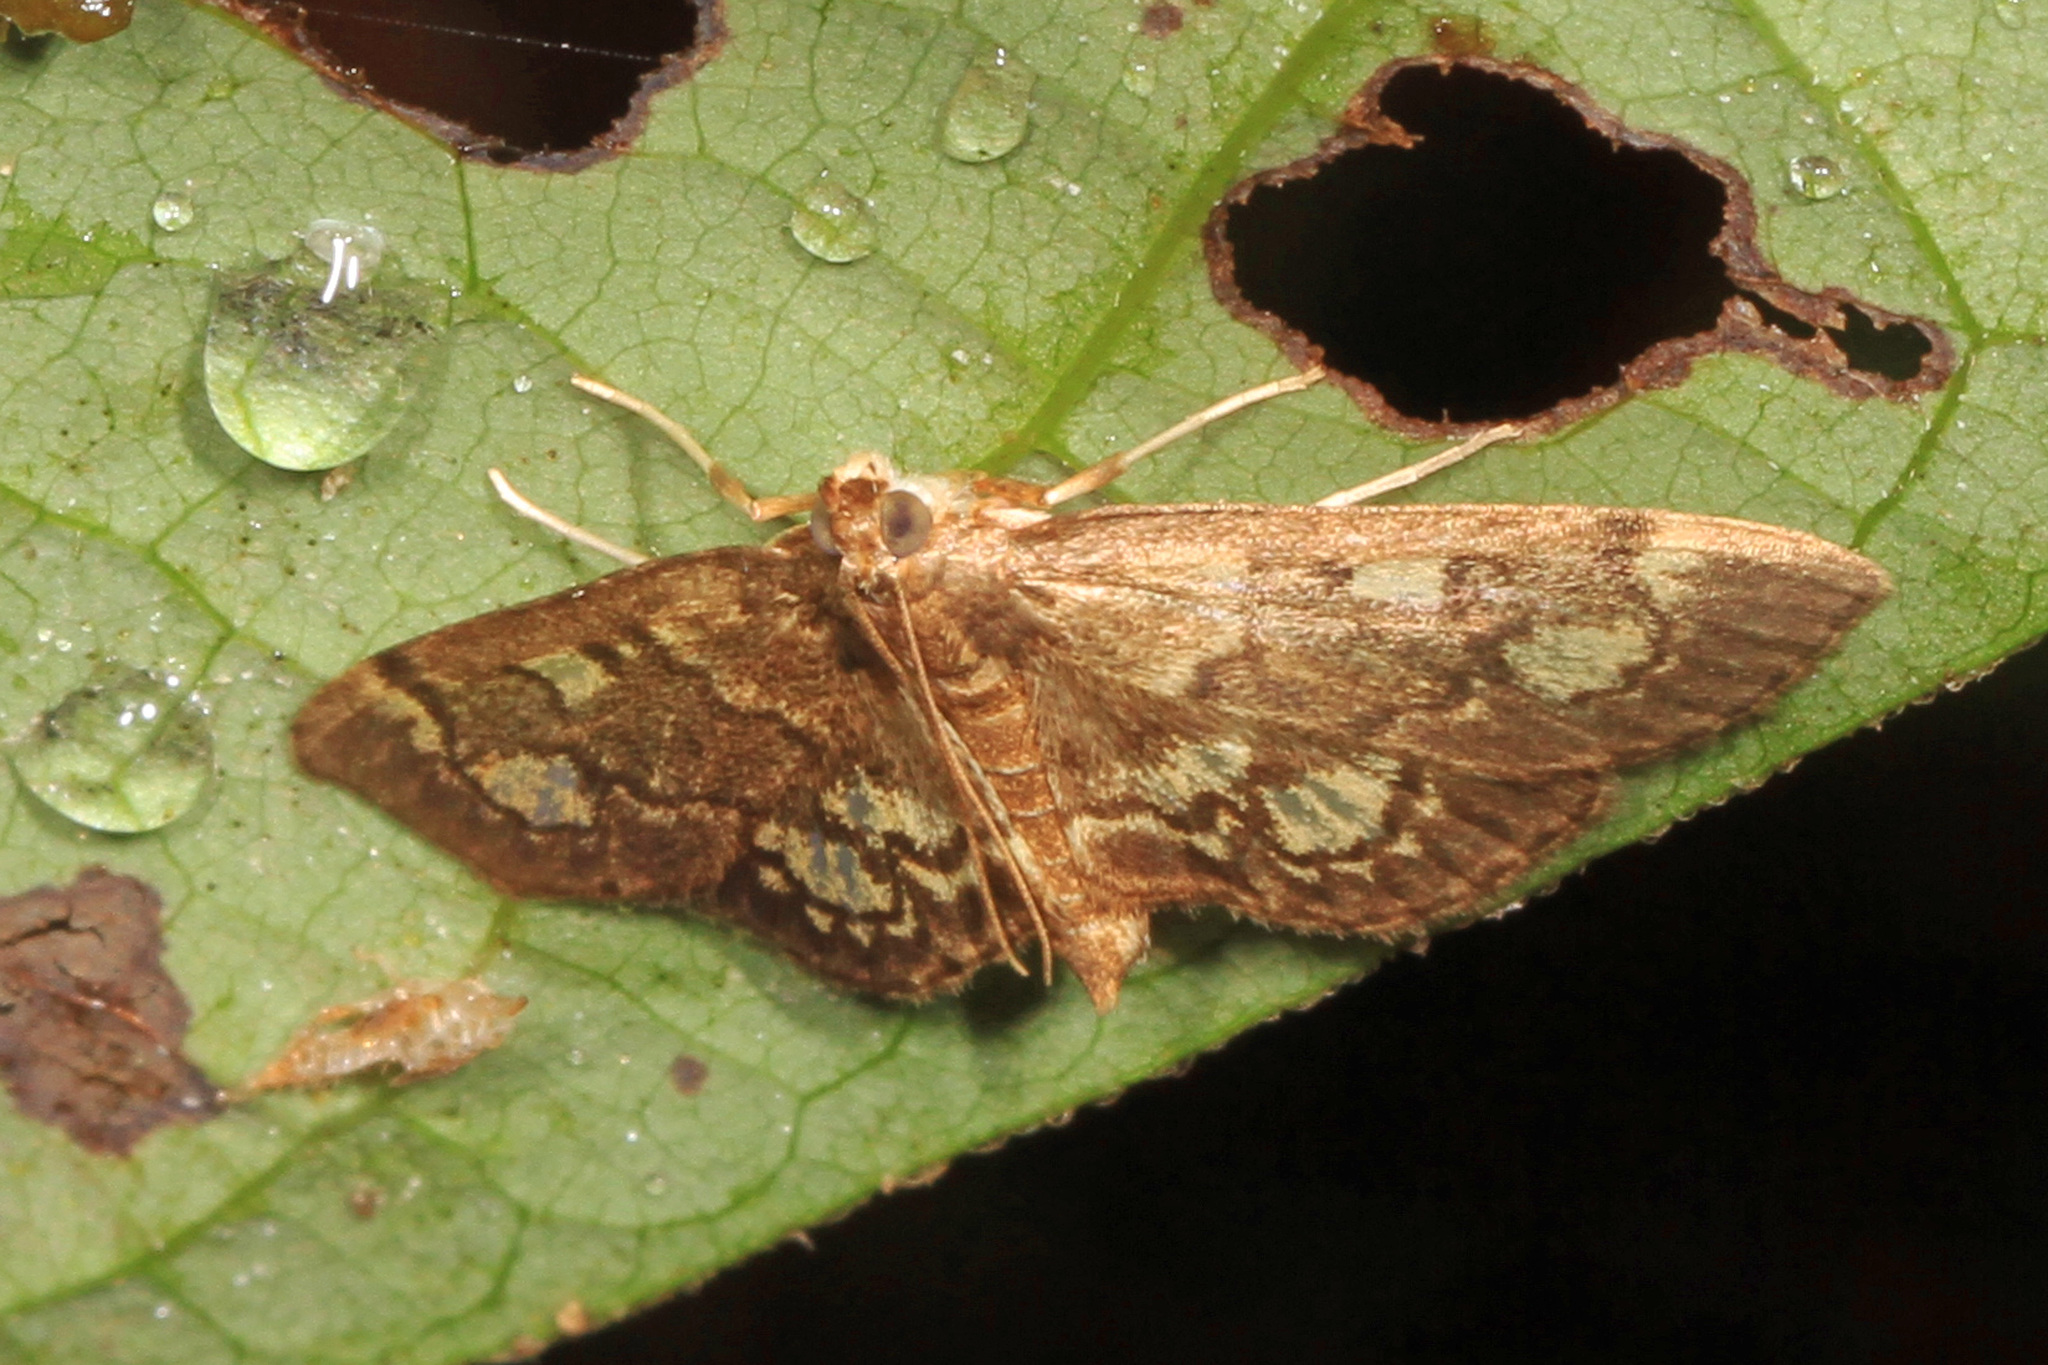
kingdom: Animalia
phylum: Arthropoda
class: Insecta
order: Lepidoptera
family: Crambidae
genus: Anania
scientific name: Anania
